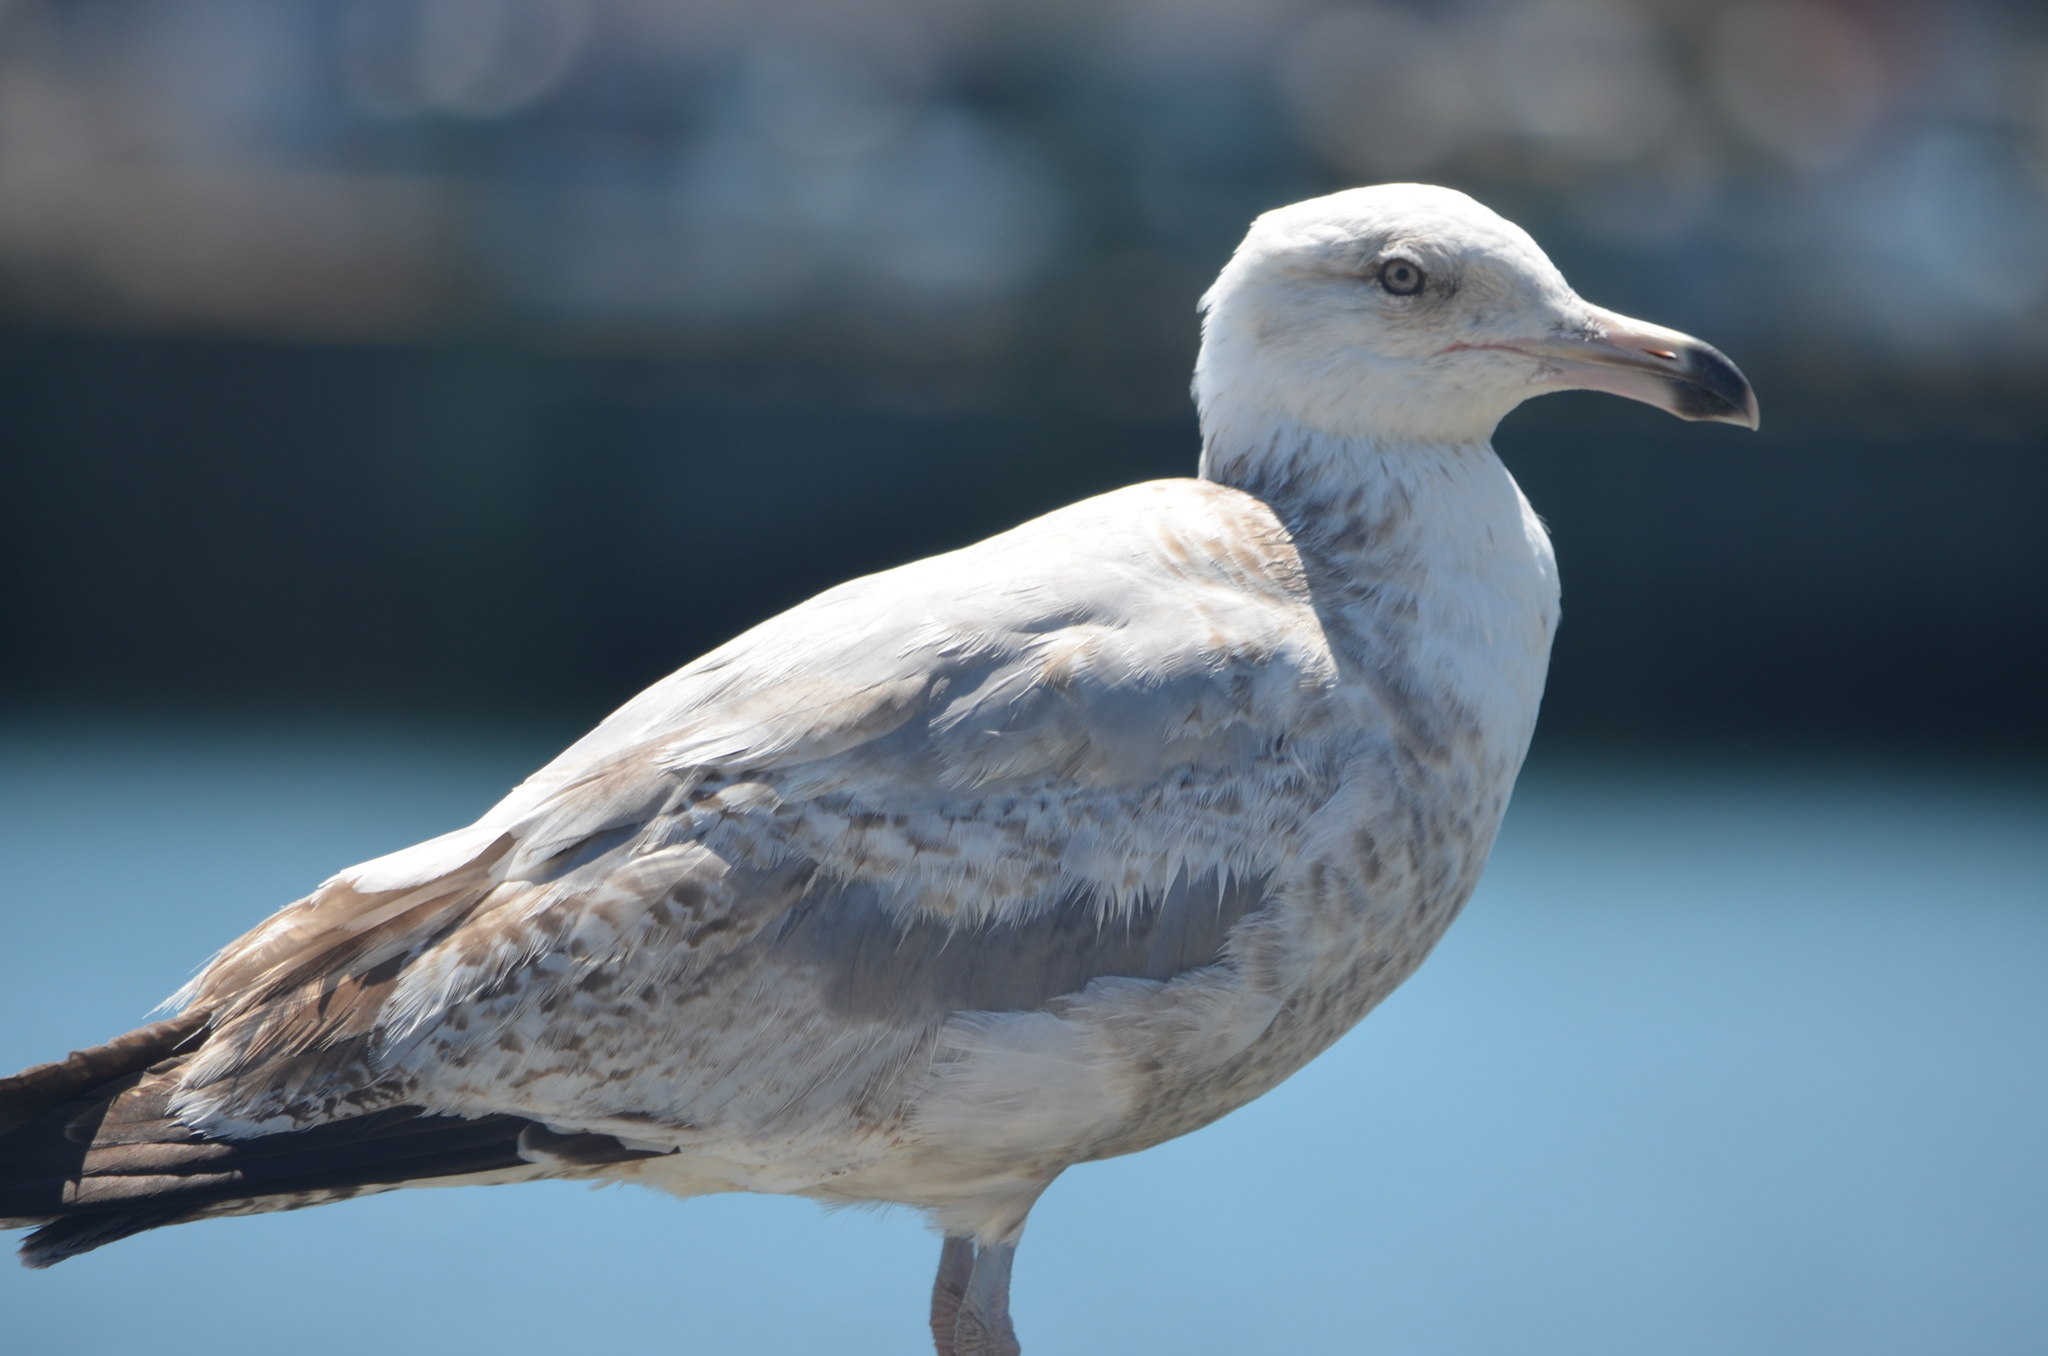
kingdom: Animalia
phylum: Chordata
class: Aves
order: Charadriiformes
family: Laridae
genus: Larus
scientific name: Larus argentatus
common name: Herring gull
